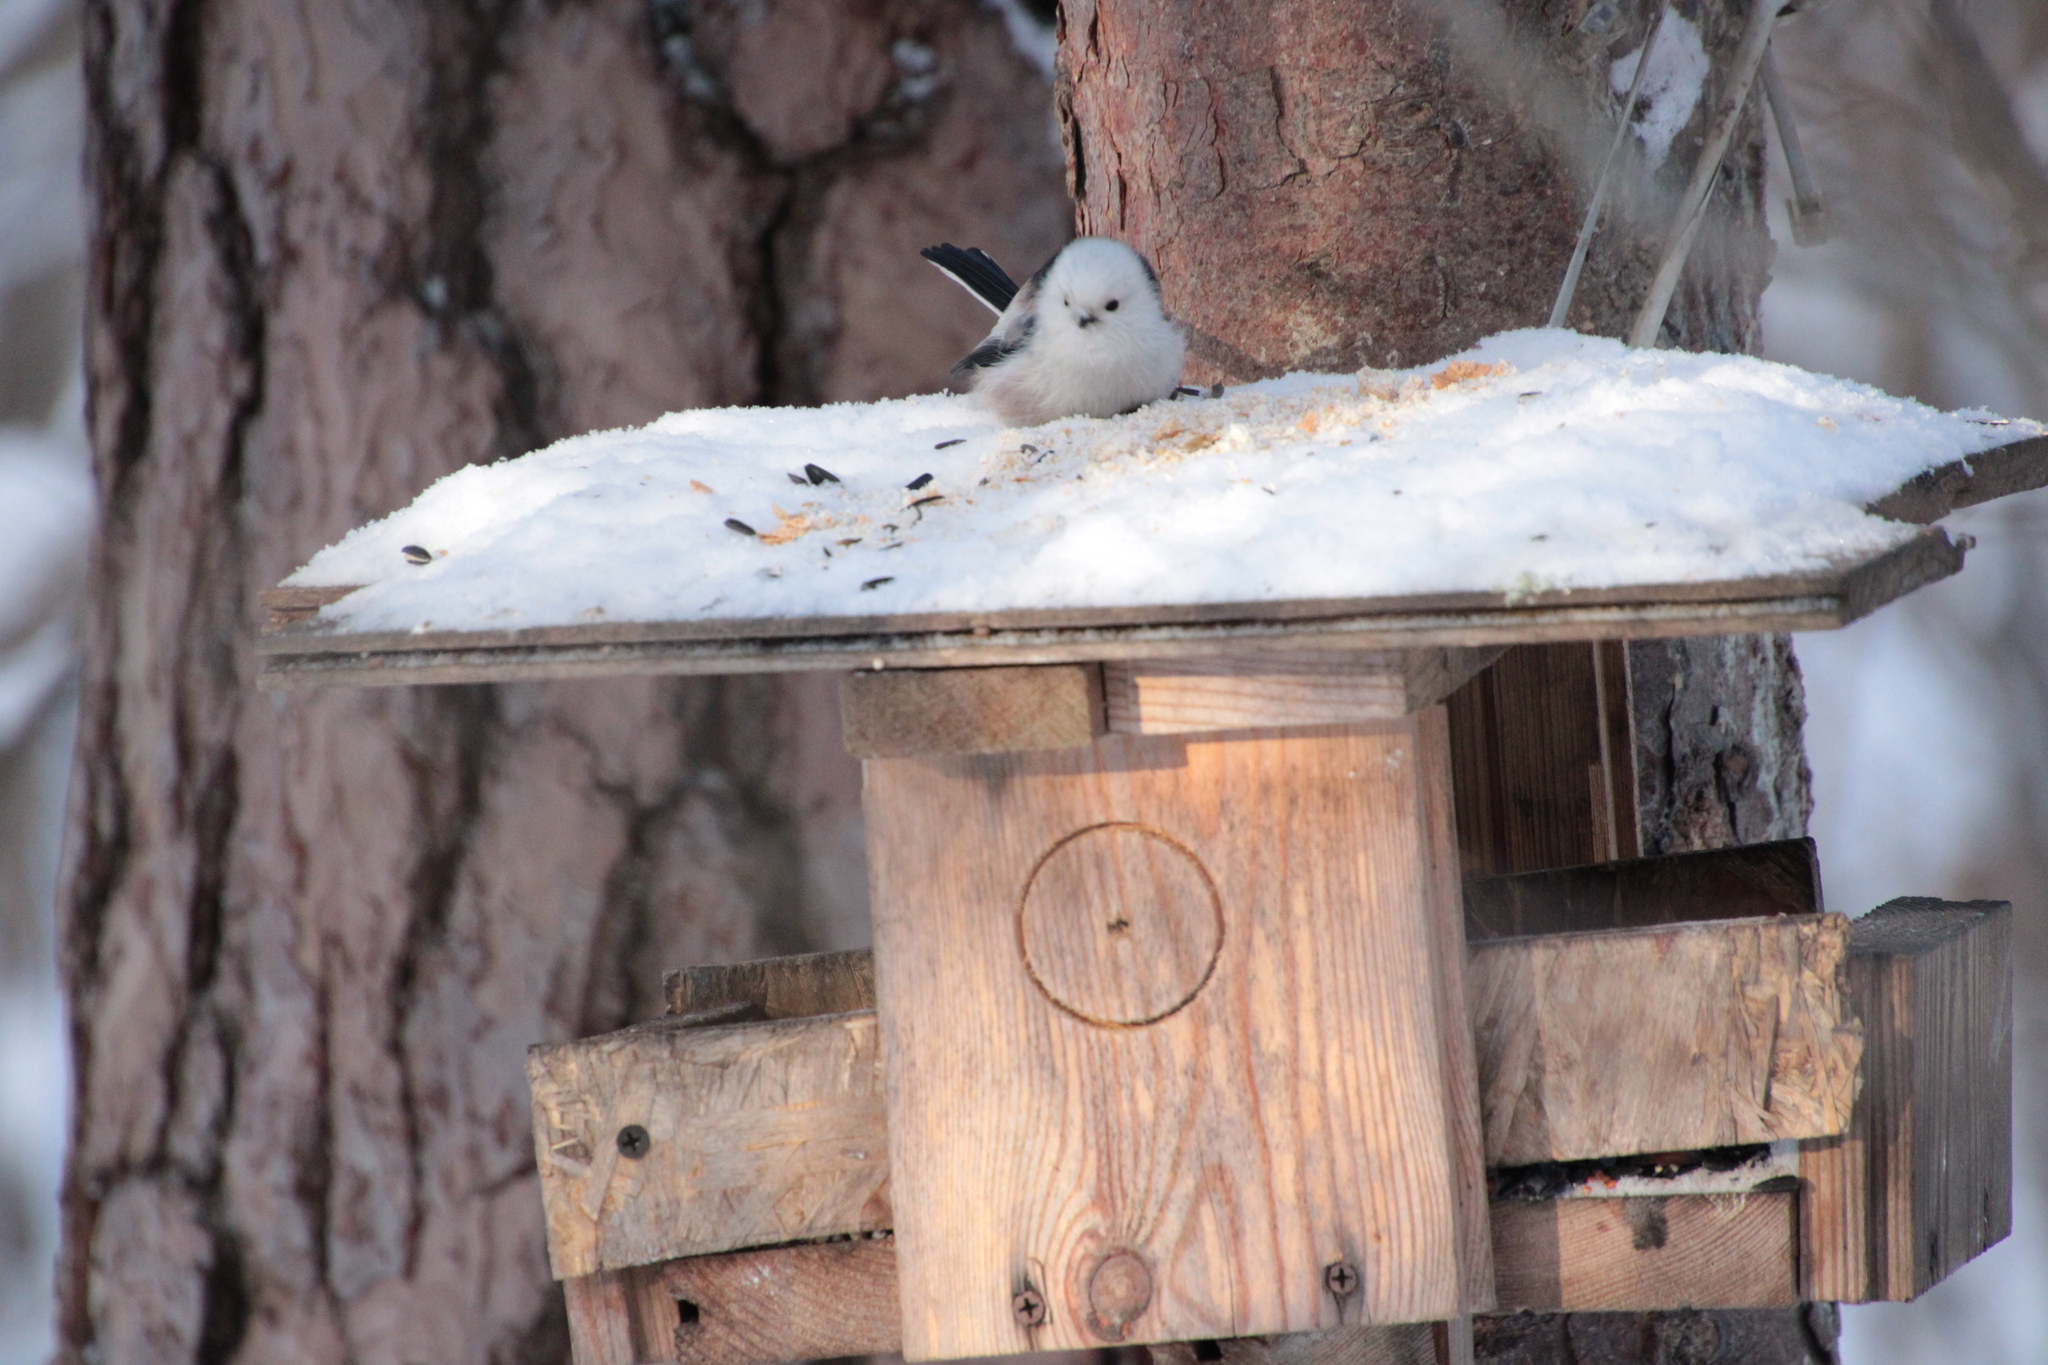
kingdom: Animalia
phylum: Chordata
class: Aves
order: Passeriformes
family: Aegithalidae
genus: Aegithalos
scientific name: Aegithalos caudatus
